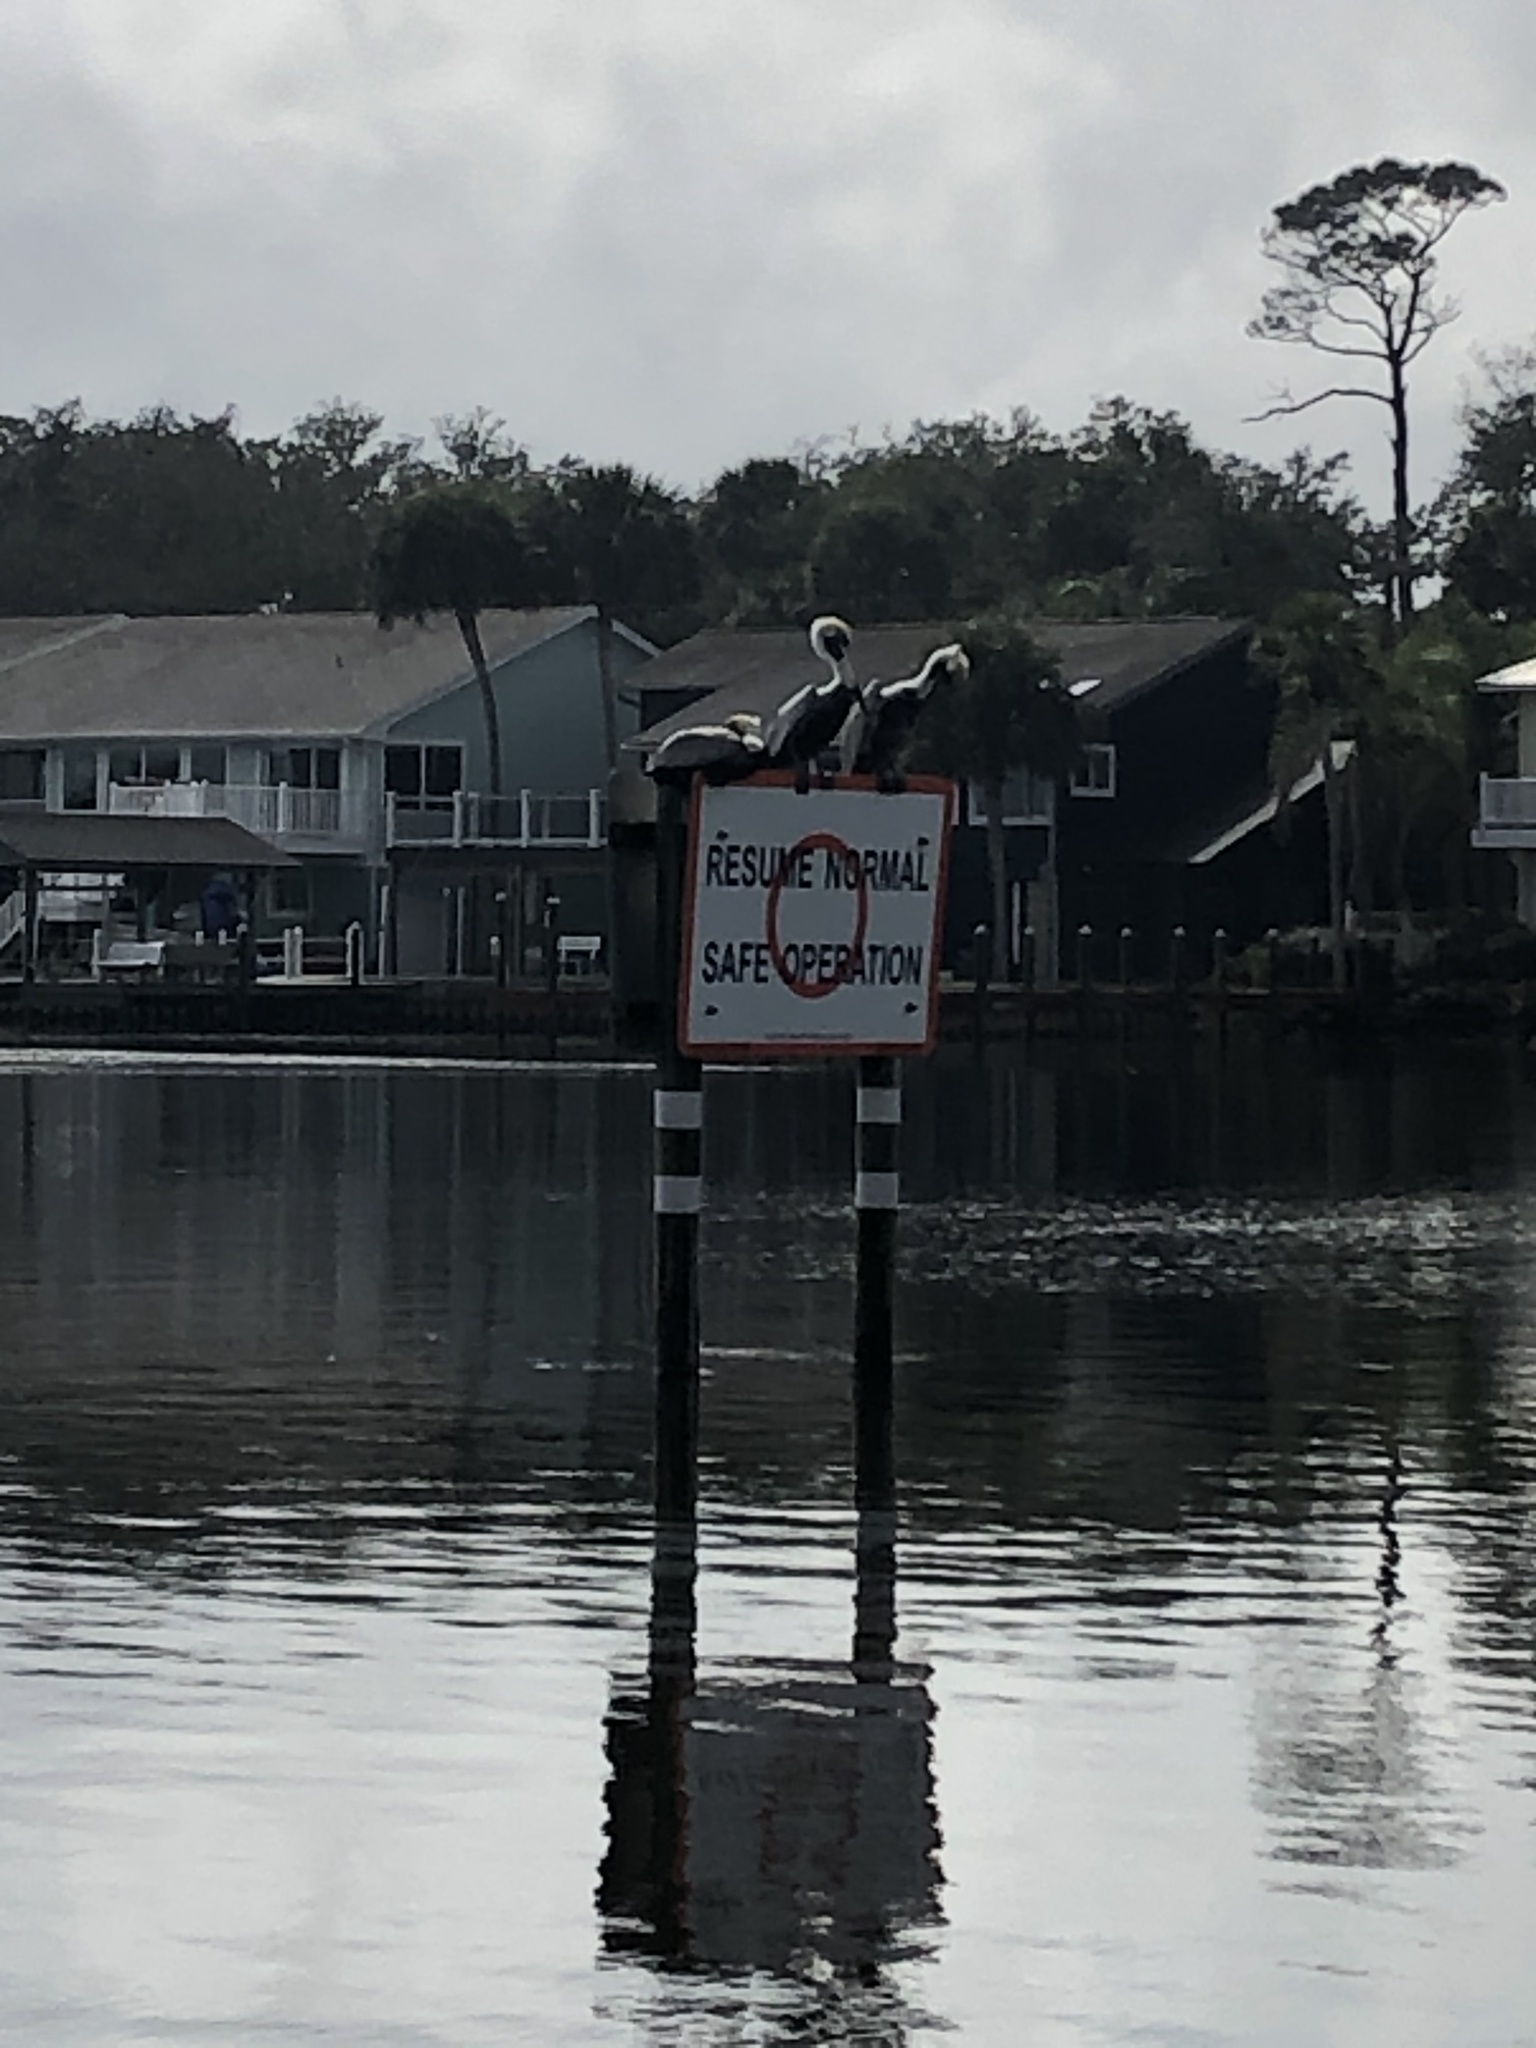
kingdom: Animalia
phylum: Chordata
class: Aves
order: Pelecaniformes
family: Pelecanidae
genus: Pelecanus
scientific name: Pelecanus occidentalis
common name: Brown pelican
